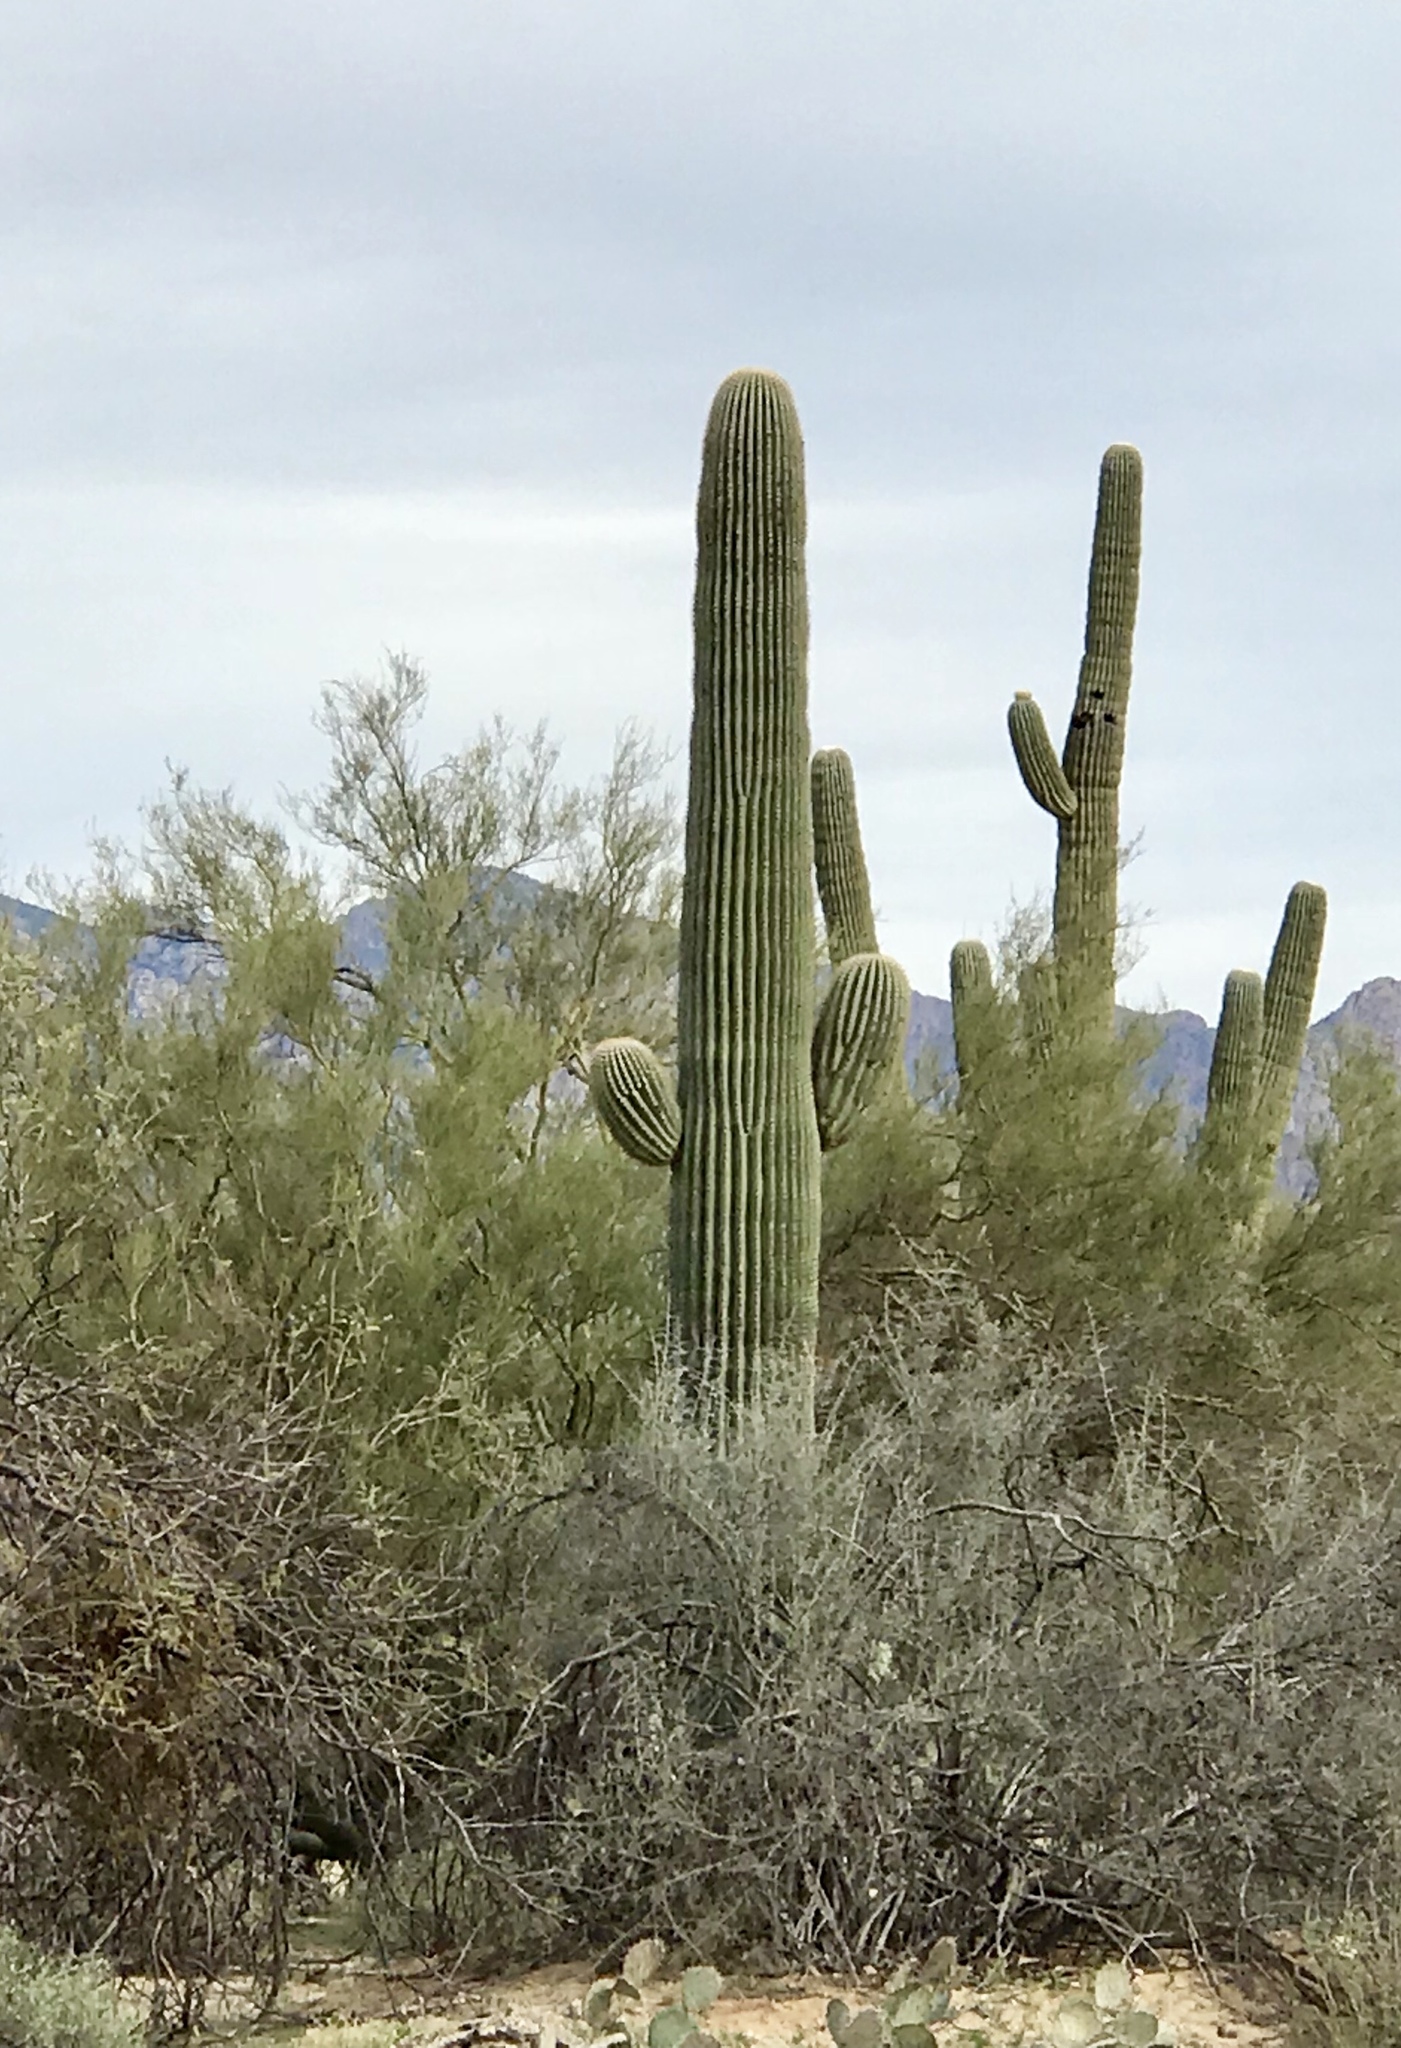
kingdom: Plantae
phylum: Tracheophyta
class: Magnoliopsida
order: Caryophyllales
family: Cactaceae
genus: Carnegiea
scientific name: Carnegiea gigantea
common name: Saguaro
